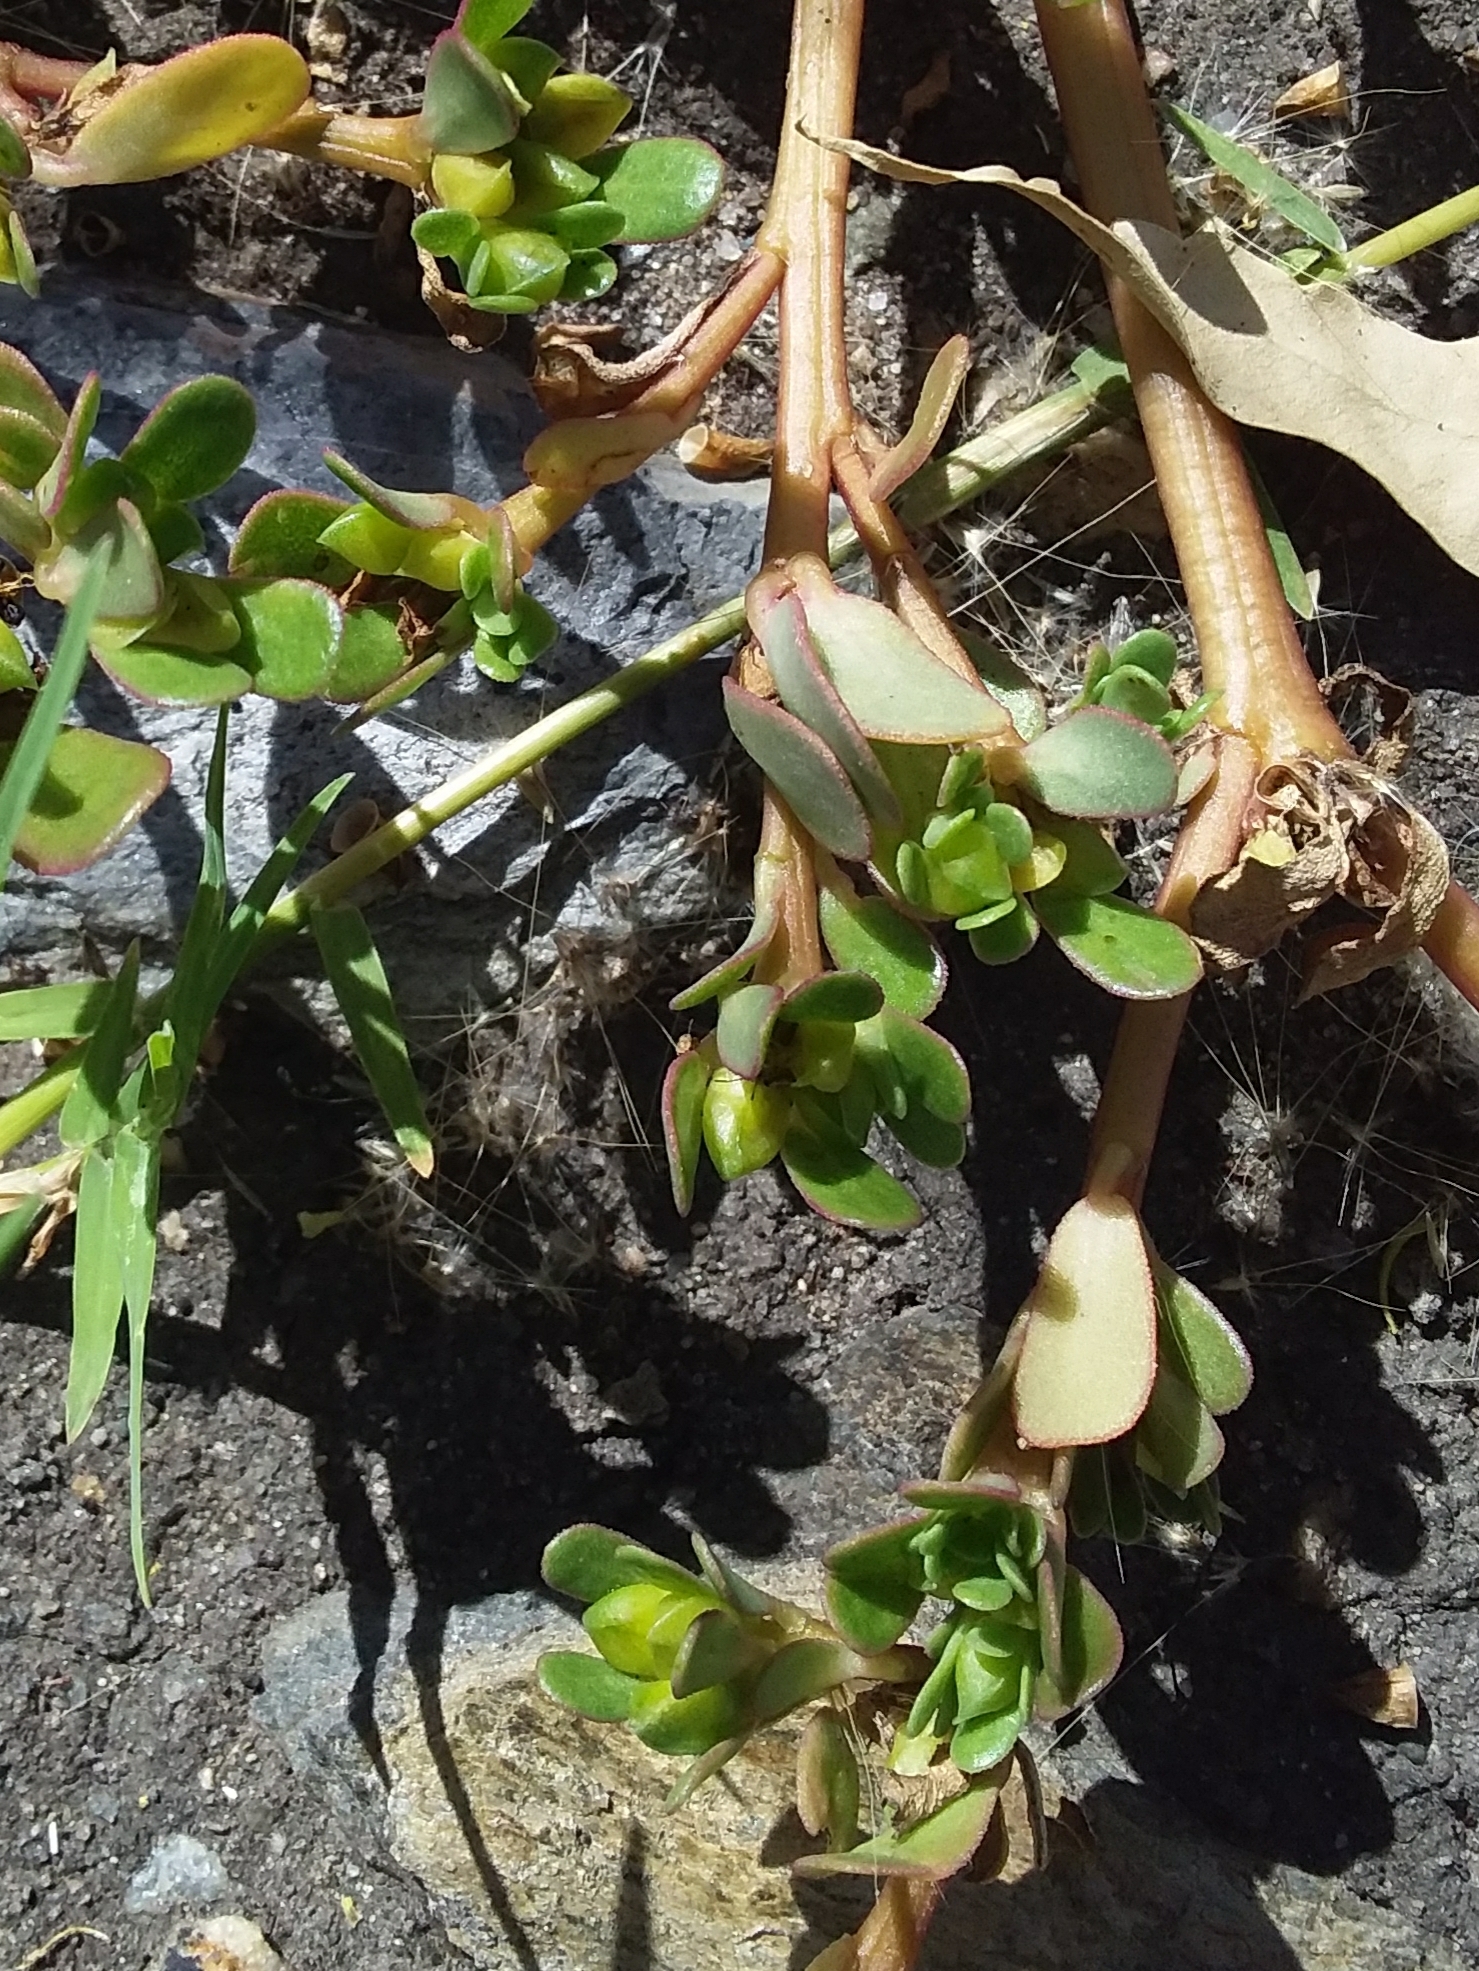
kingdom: Plantae
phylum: Tracheophyta
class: Magnoliopsida
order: Caryophyllales
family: Portulacaceae
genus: Portulaca
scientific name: Portulaca oleracea
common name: Common purslane
